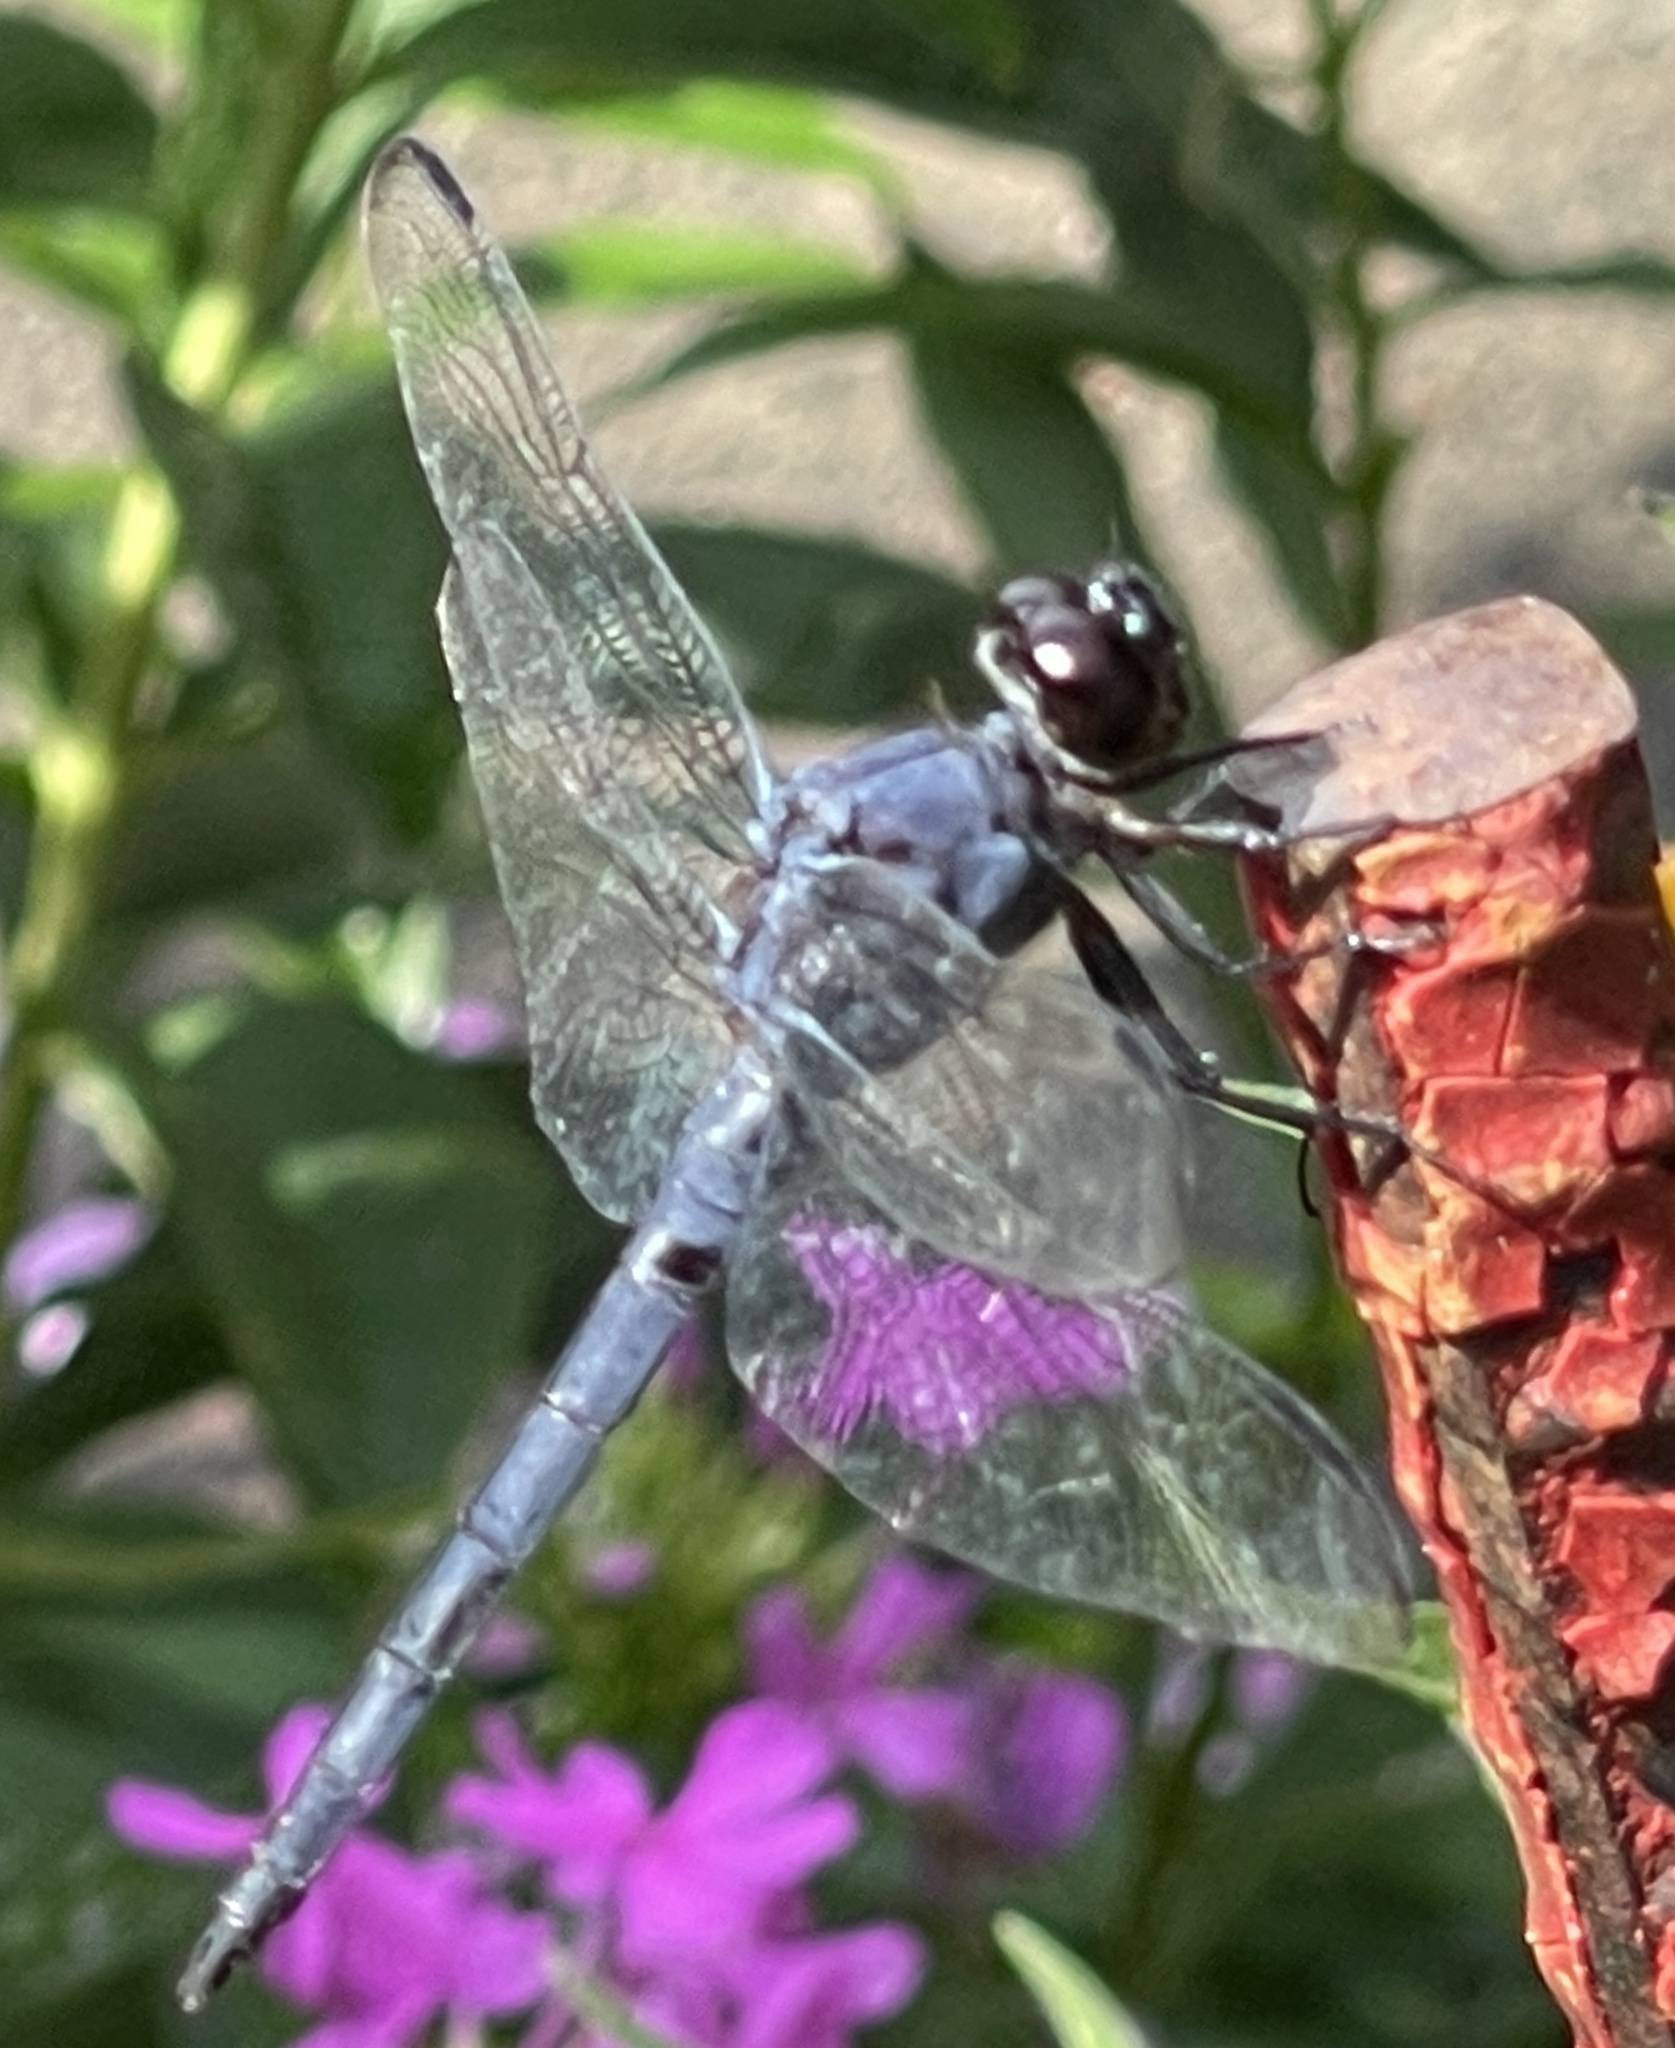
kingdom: Animalia
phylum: Arthropoda
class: Insecta
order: Odonata
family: Libellulidae
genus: Libellula
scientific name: Libellula incesta
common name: Slaty skimmer
